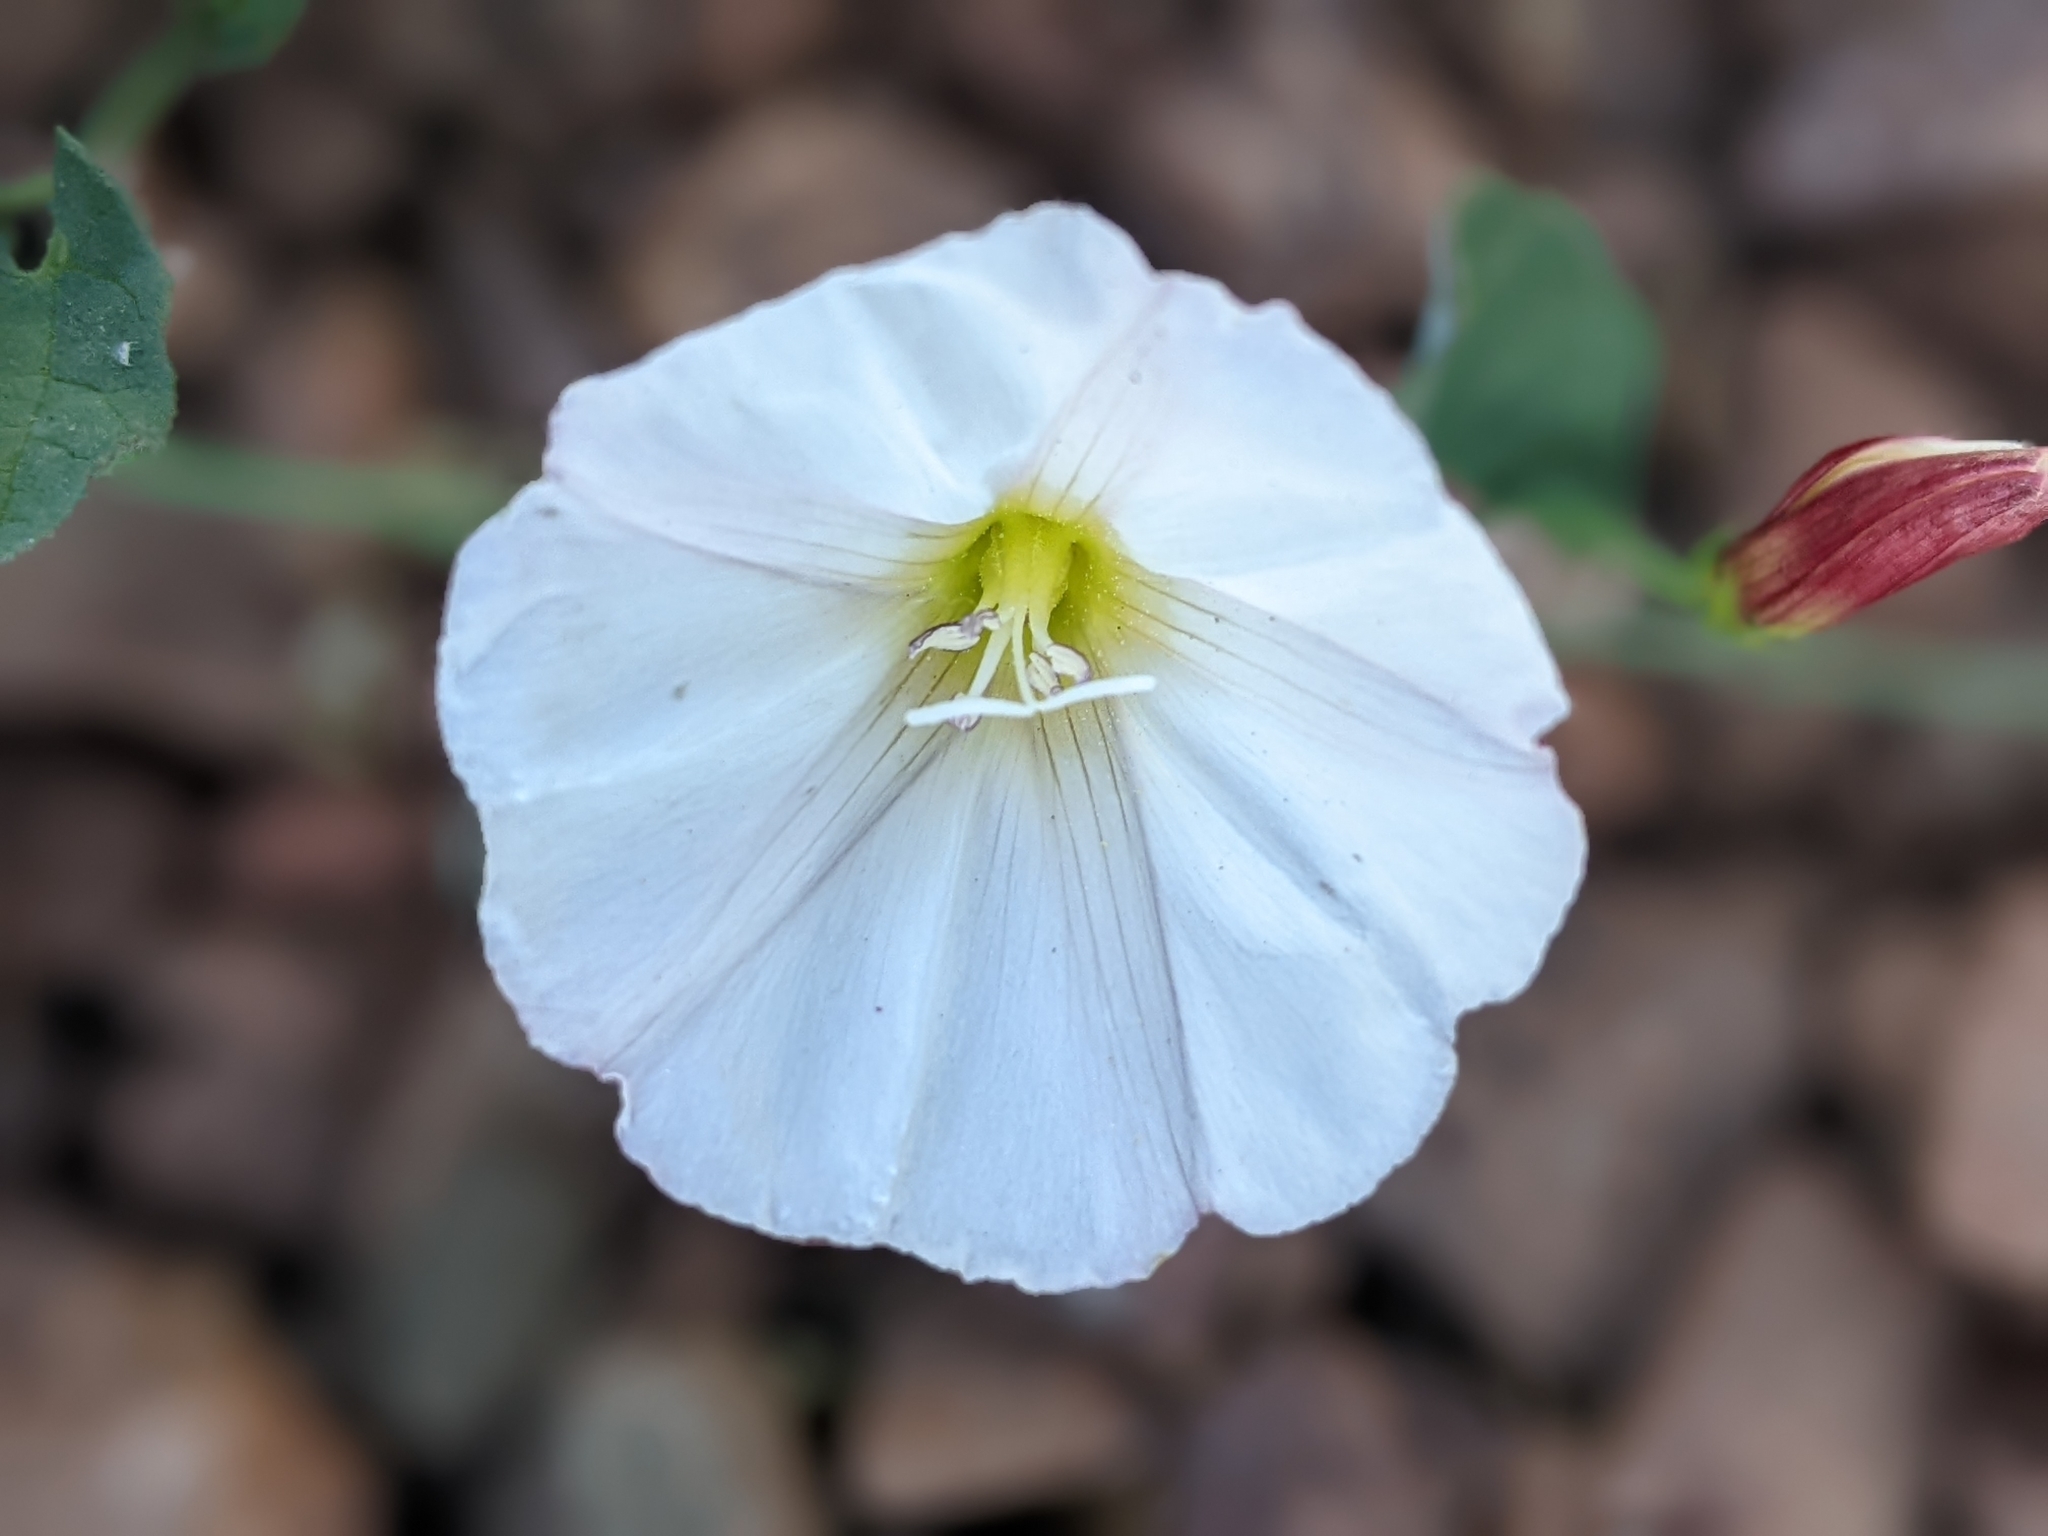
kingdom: Plantae
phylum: Tracheophyta
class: Magnoliopsida
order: Solanales
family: Convolvulaceae
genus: Convolvulus
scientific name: Convolvulus arvensis
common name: Field bindweed
